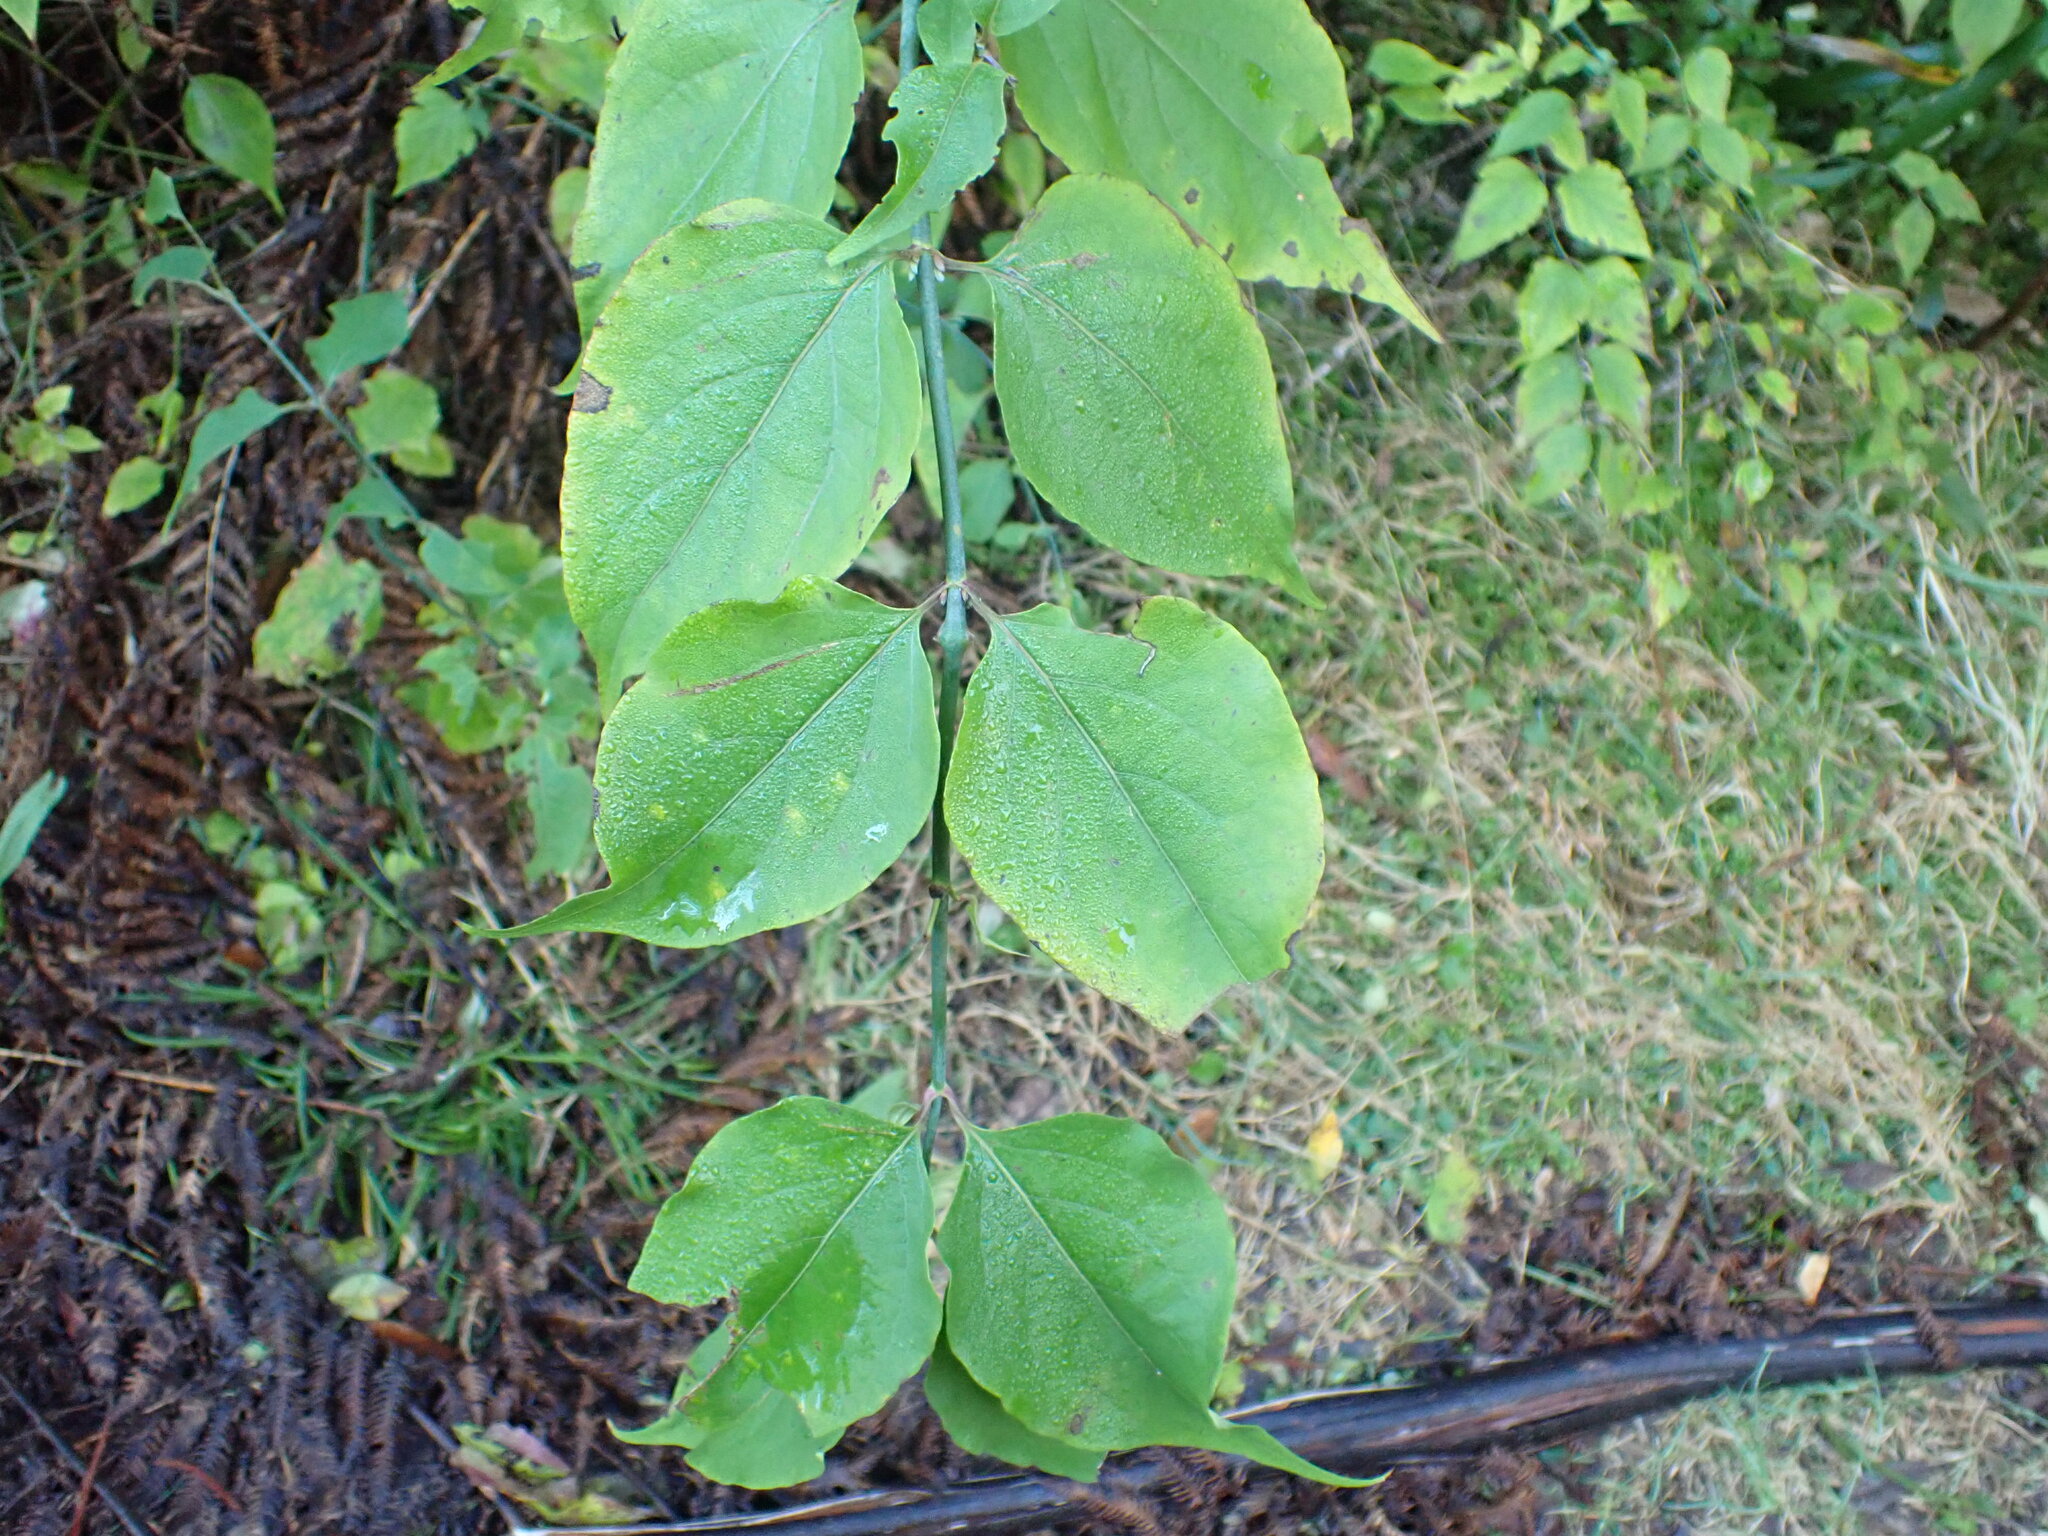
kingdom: Plantae
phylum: Tracheophyta
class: Magnoliopsida
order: Dipsacales
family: Caprifoliaceae
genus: Leycesteria
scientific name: Leycesteria formosa
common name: Himalayan honeysuckle
